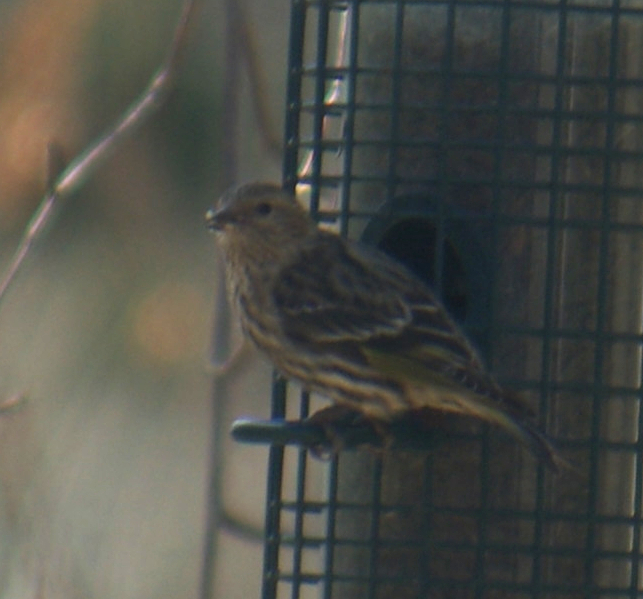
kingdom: Animalia
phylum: Chordata
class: Aves
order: Passeriformes
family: Fringillidae
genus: Spinus
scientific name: Spinus pinus
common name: Pine siskin
